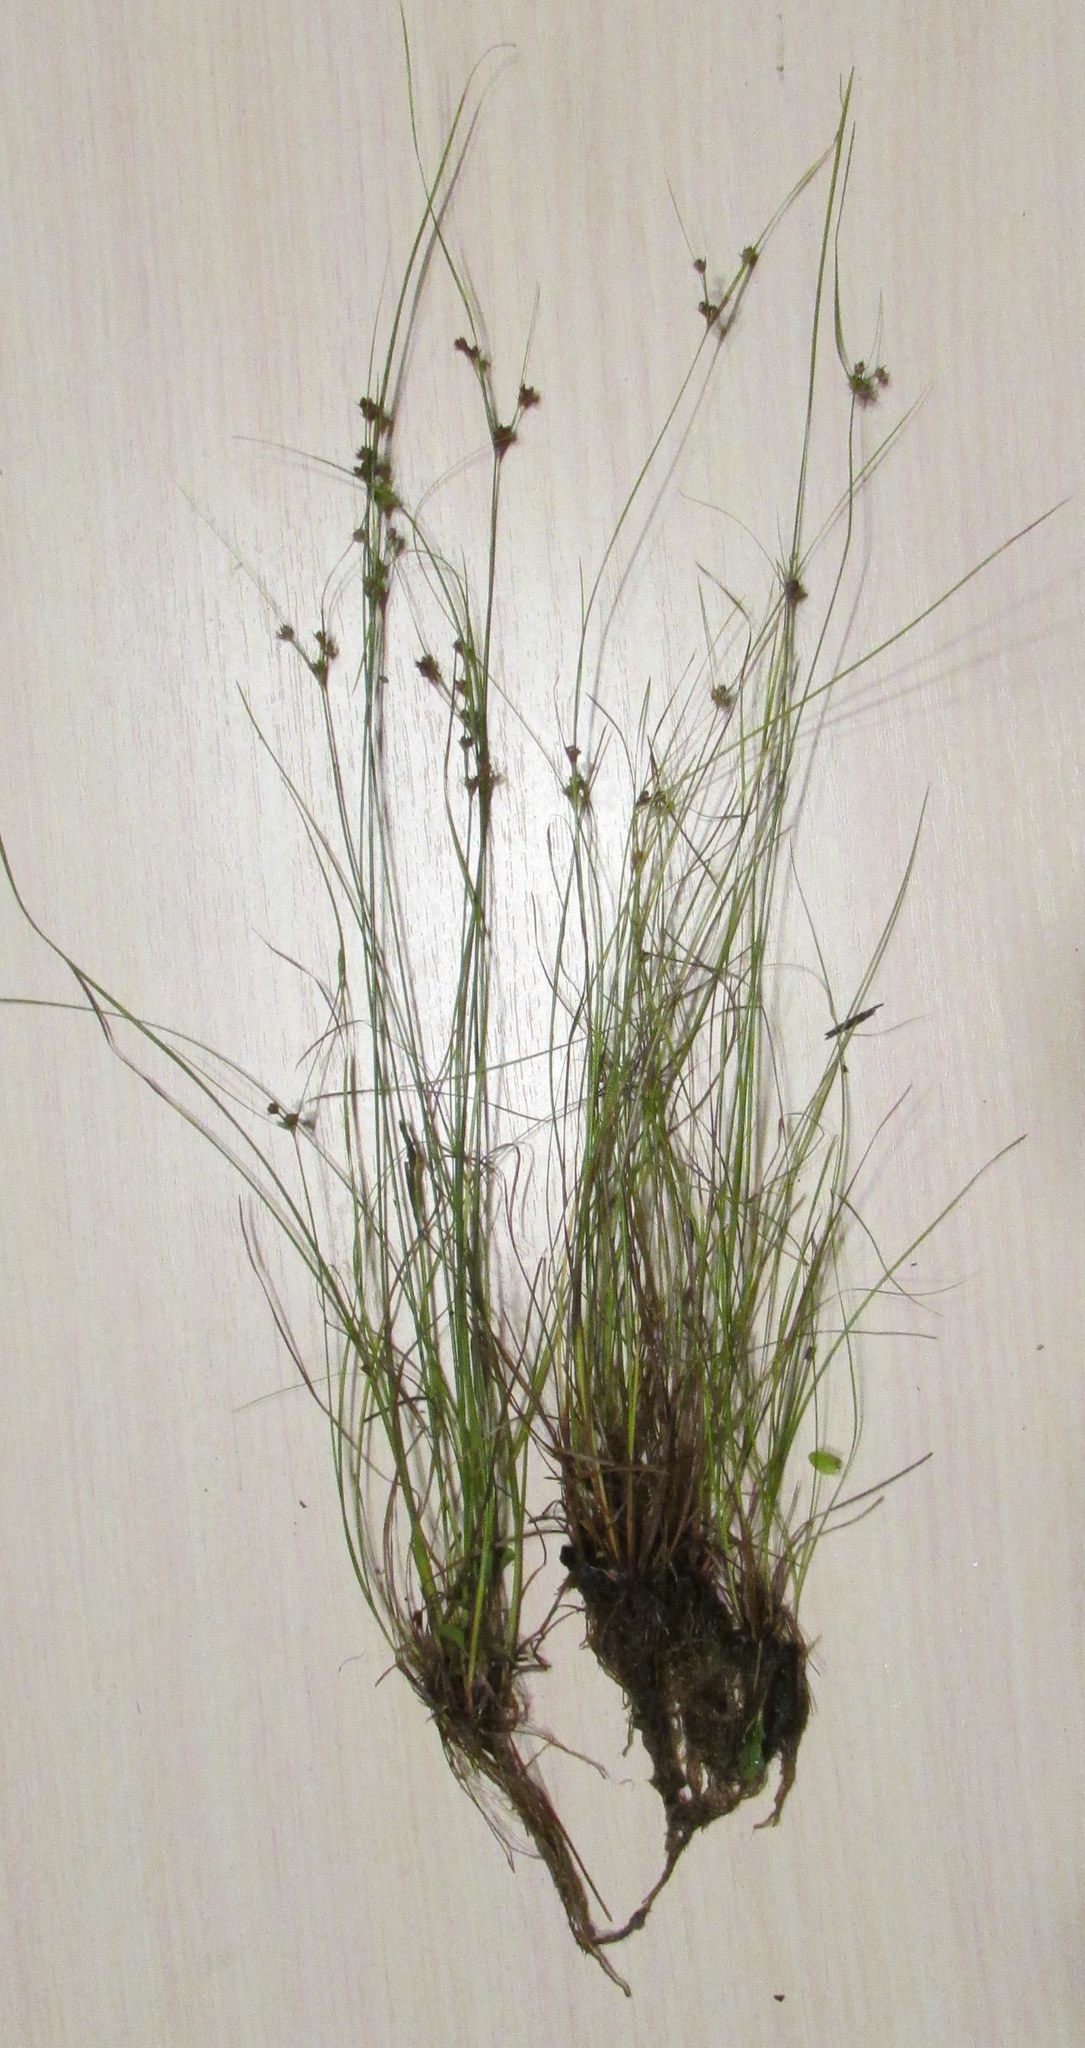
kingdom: Plantae
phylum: Tracheophyta
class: Liliopsida
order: Poales
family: Juncaceae
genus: Juncus
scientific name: Juncus tenuis
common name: Slender rush
